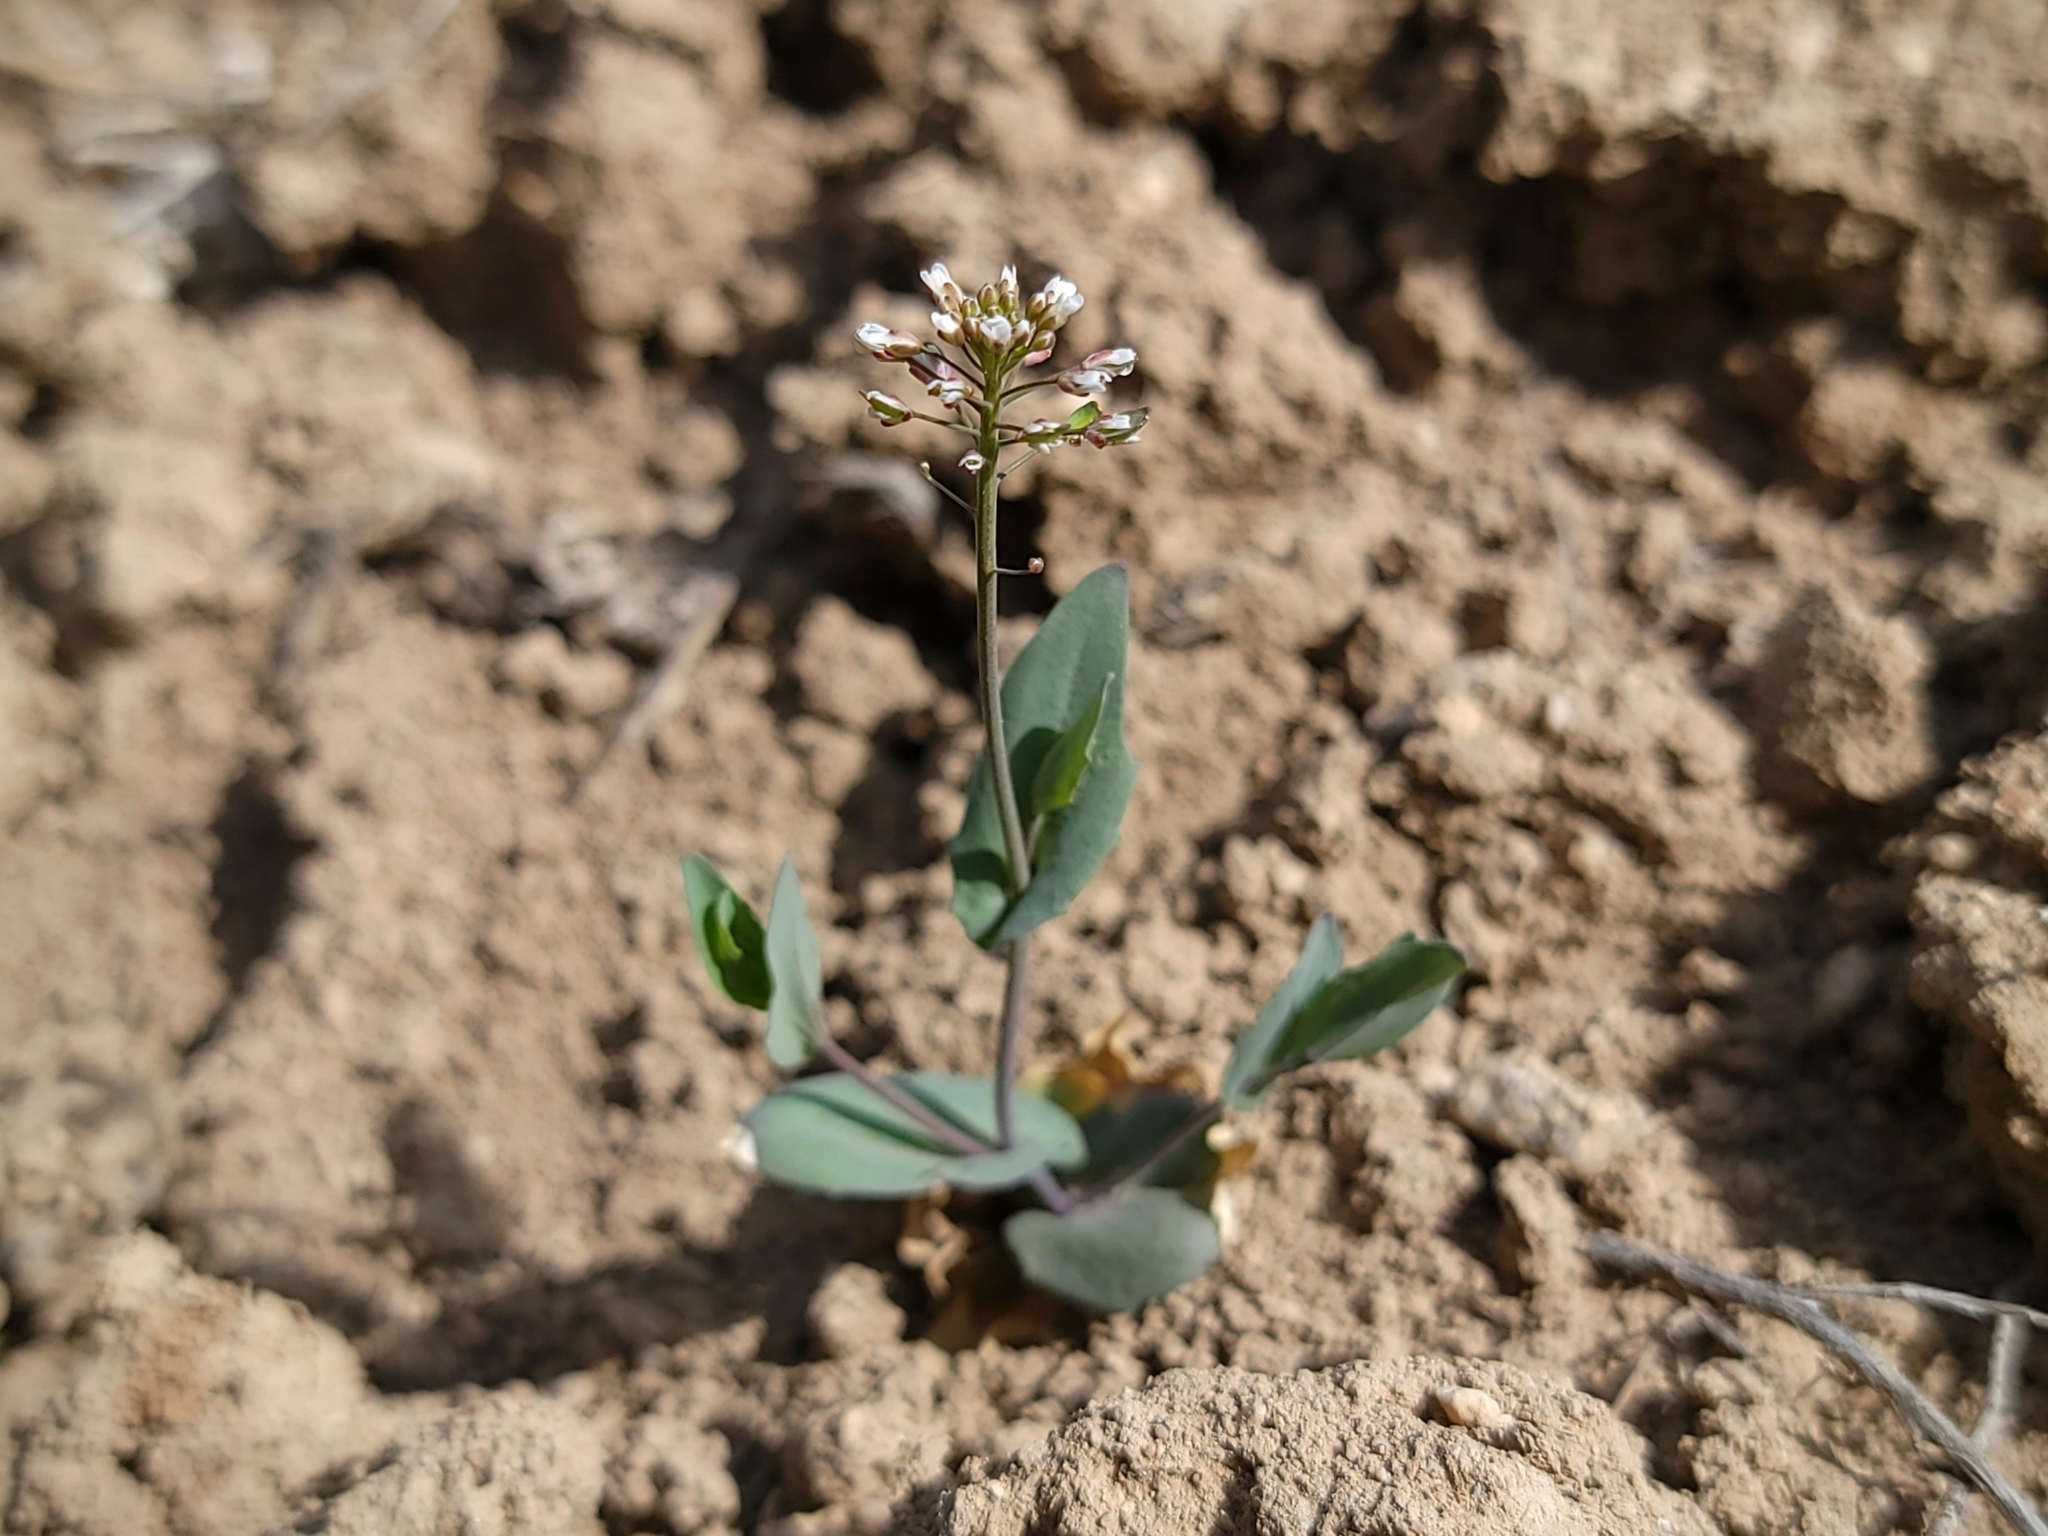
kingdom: Plantae
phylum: Tracheophyta
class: Magnoliopsida
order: Brassicales
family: Brassicaceae
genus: Noccaea
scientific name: Noccaea perfoliata
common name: Perfoliate pennycress
